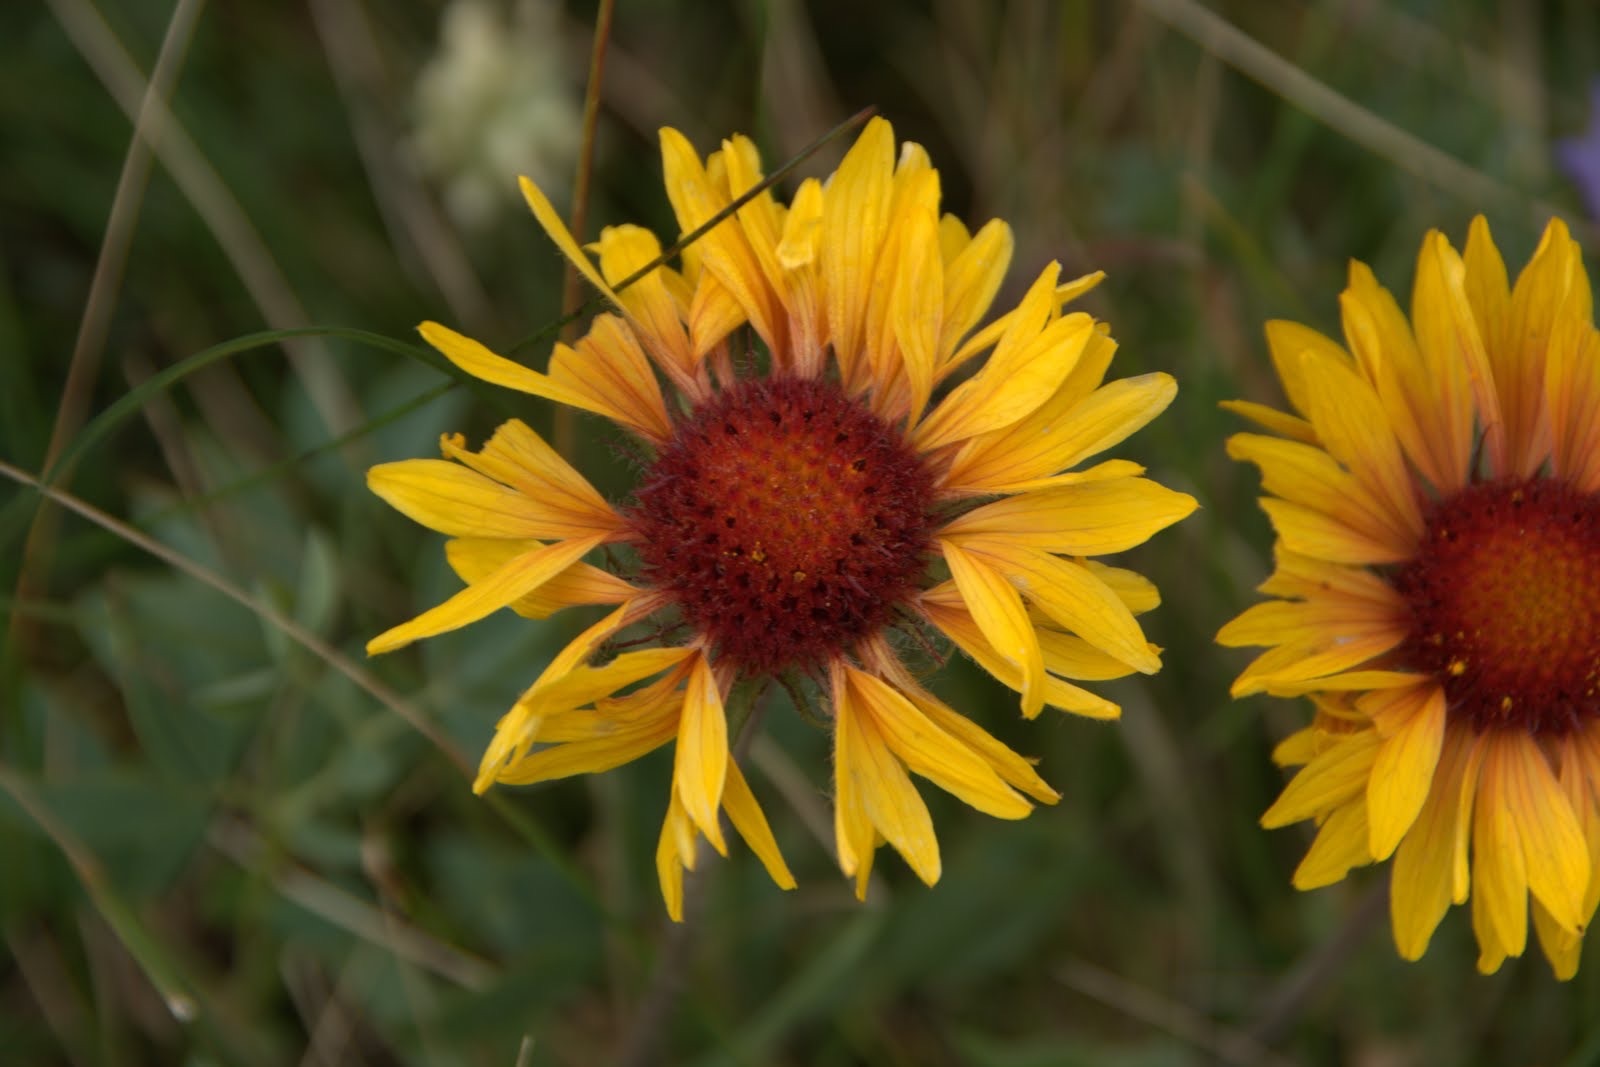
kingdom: Plantae
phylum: Tracheophyta
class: Magnoliopsida
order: Asterales
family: Asteraceae
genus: Gaillardia
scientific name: Gaillardia aristata
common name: Blanket-flower
